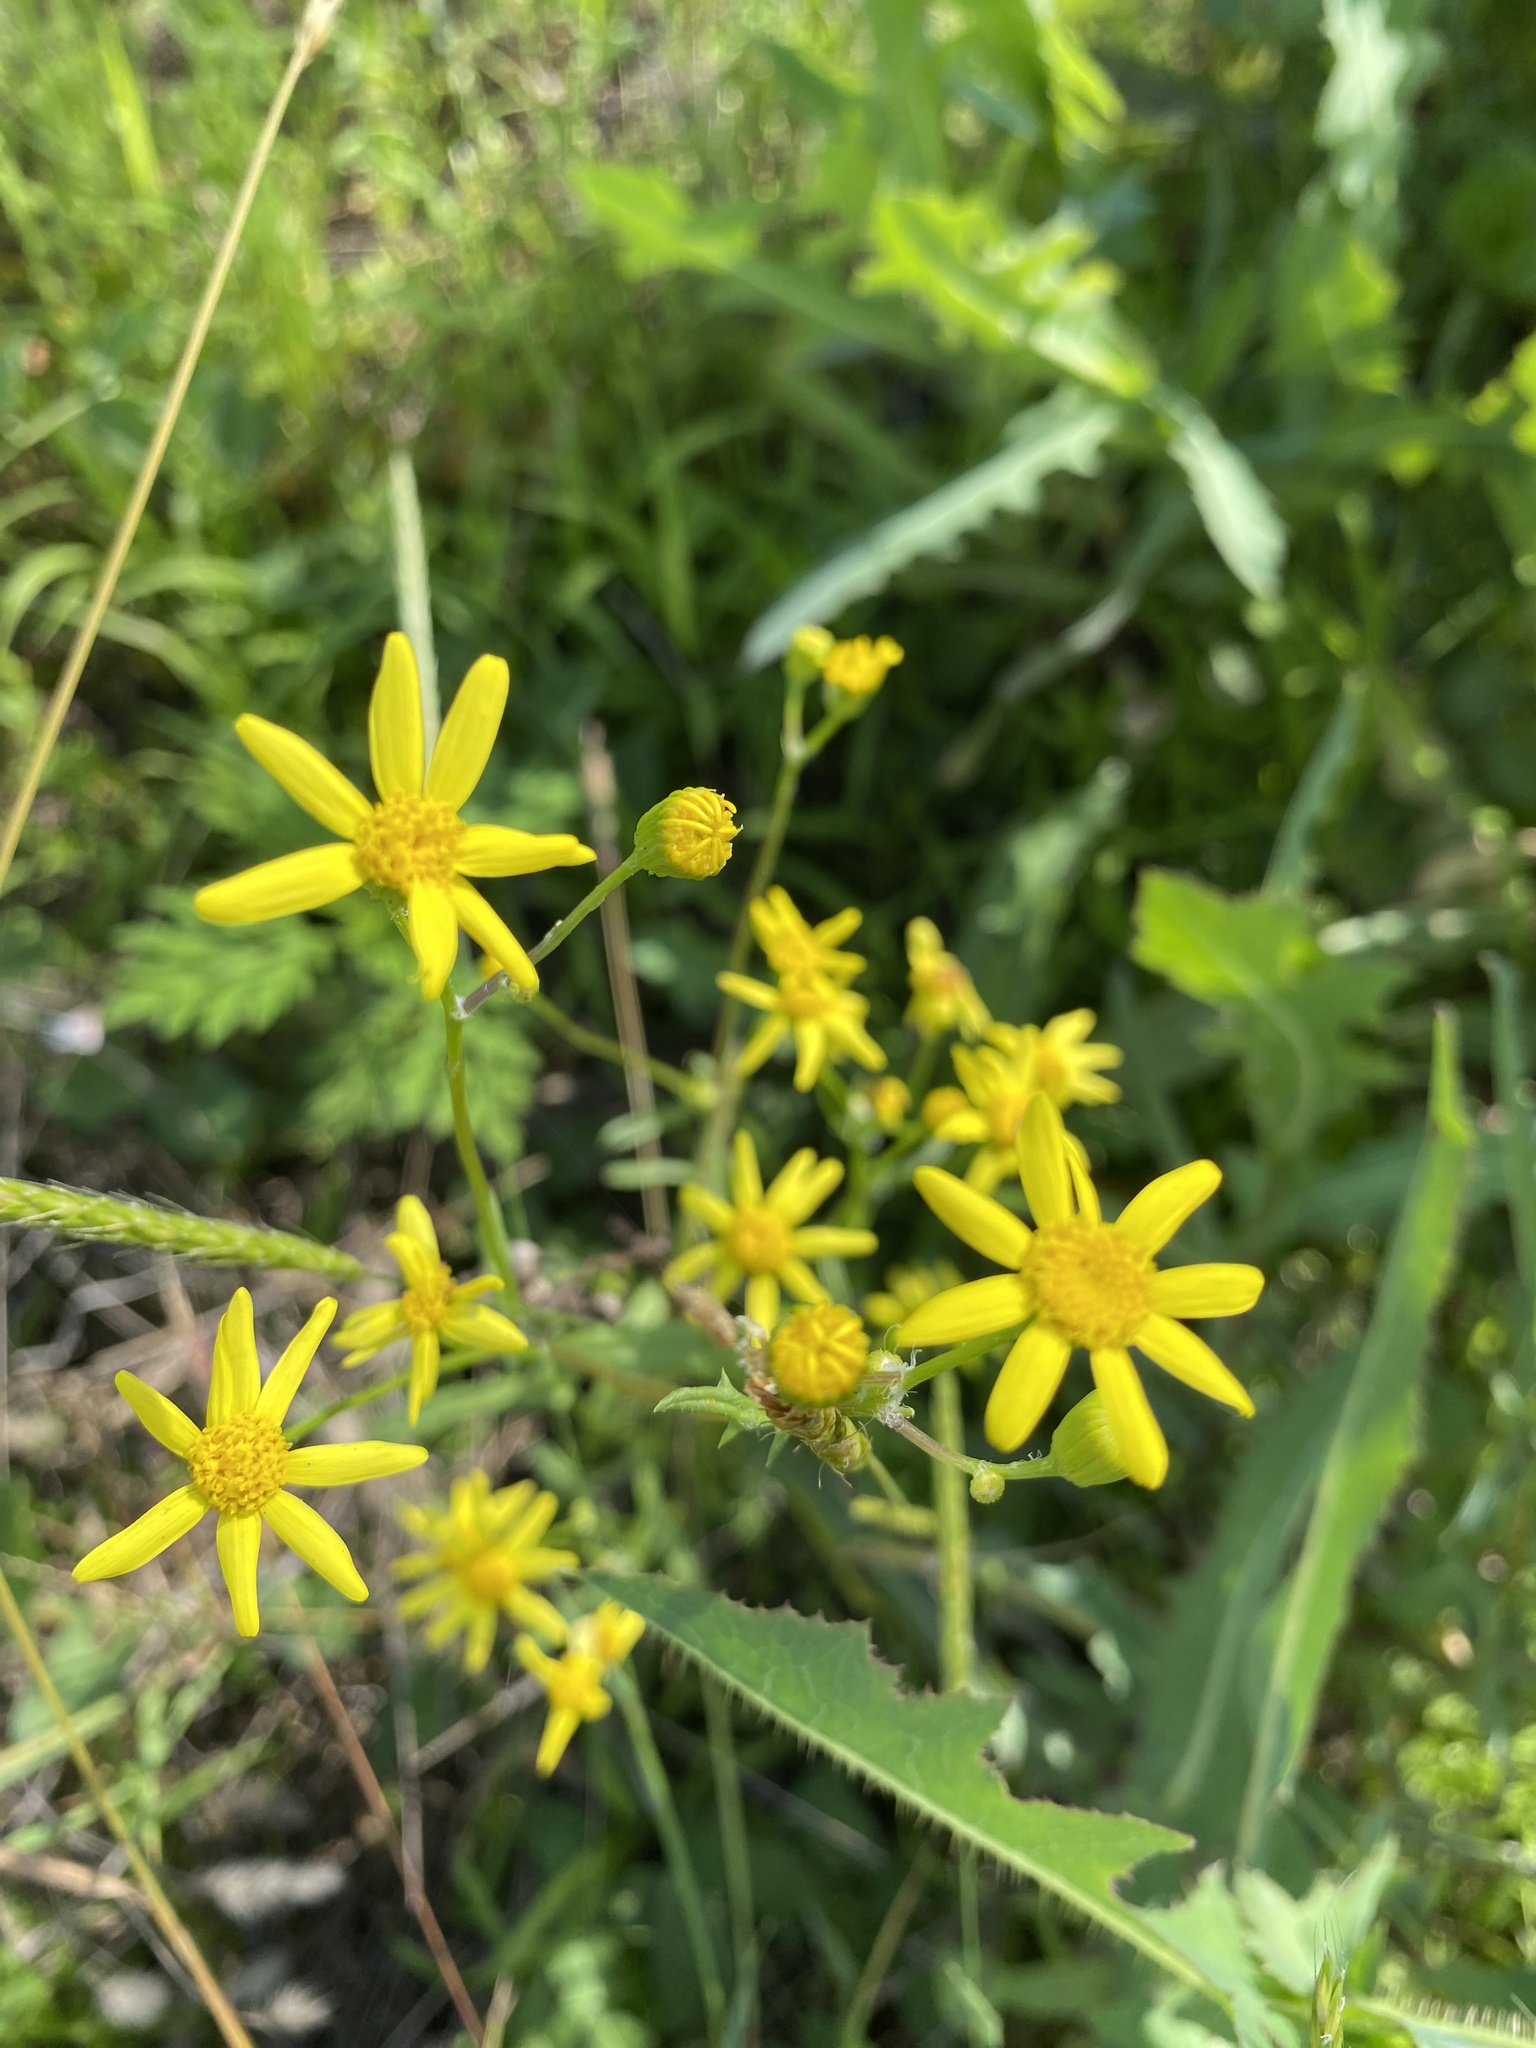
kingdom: Plantae
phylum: Tracheophyta
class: Magnoliopsida
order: Asterales
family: Asteraceae
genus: Senecio
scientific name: Senecio vernalis
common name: Eastern groundsel
